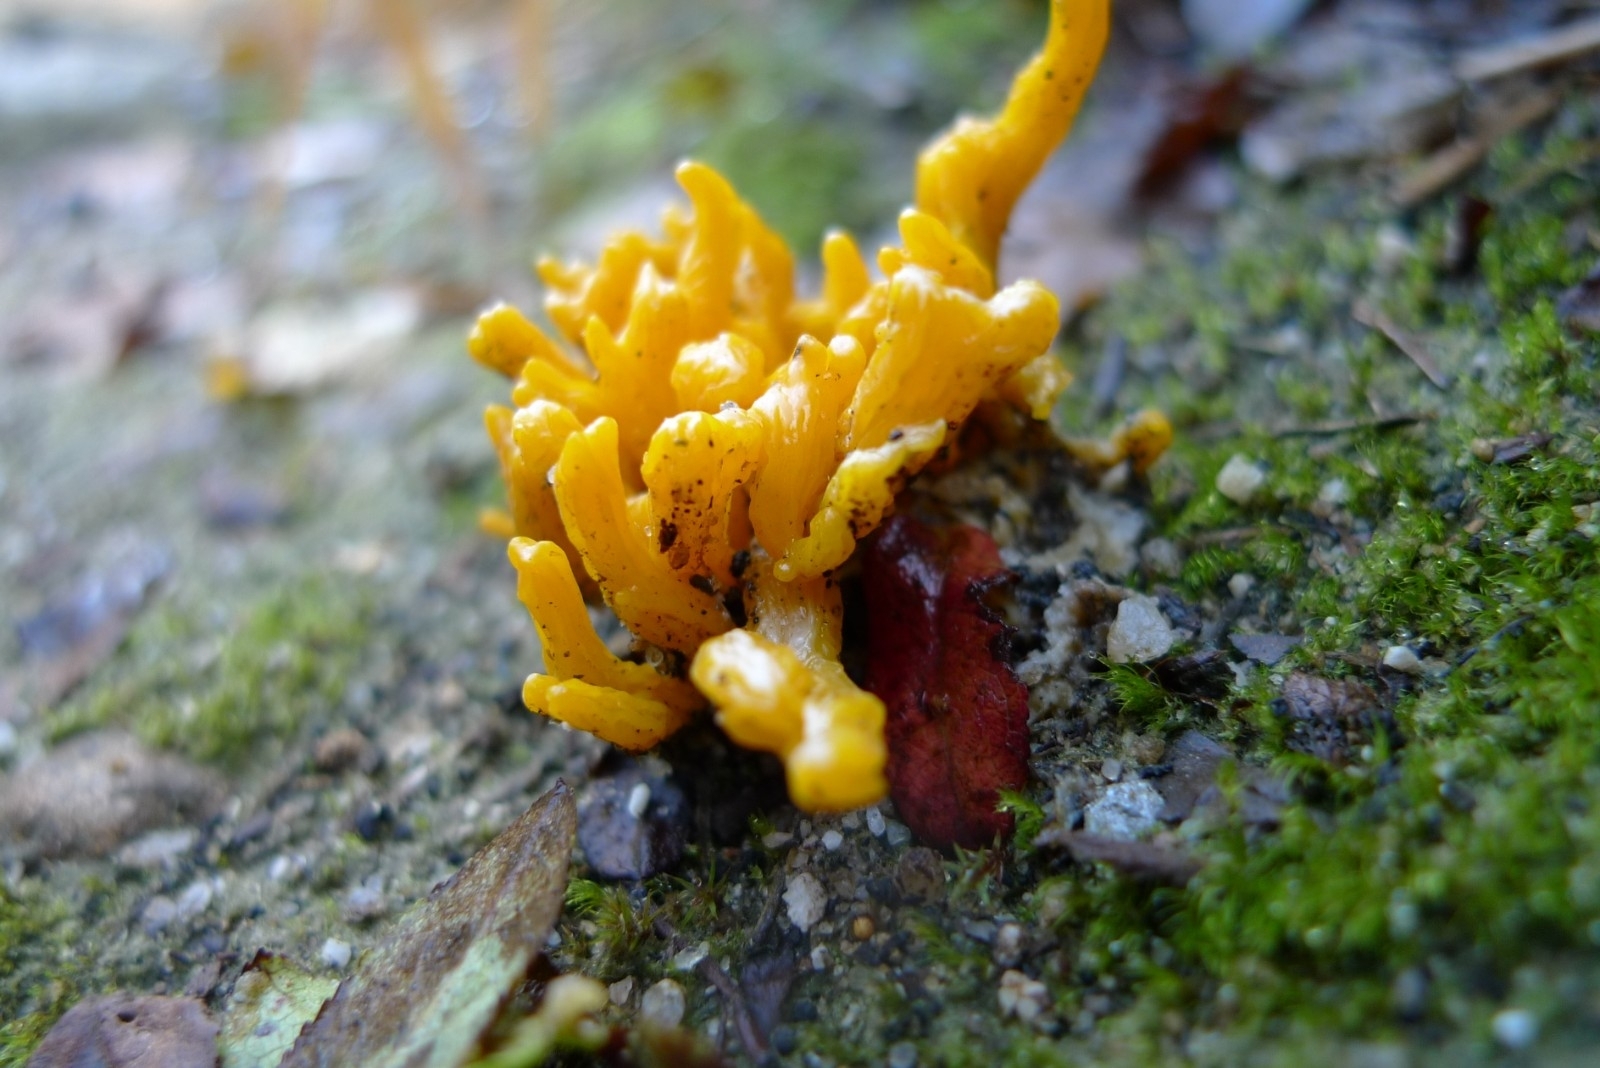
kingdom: Fungi
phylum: Basidiomycota
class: Dacrymycetes
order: Dacrymycetales
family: Dacrymycetaceae
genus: Calocera
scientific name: Calocera viscosa
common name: Yellow stagshorn
